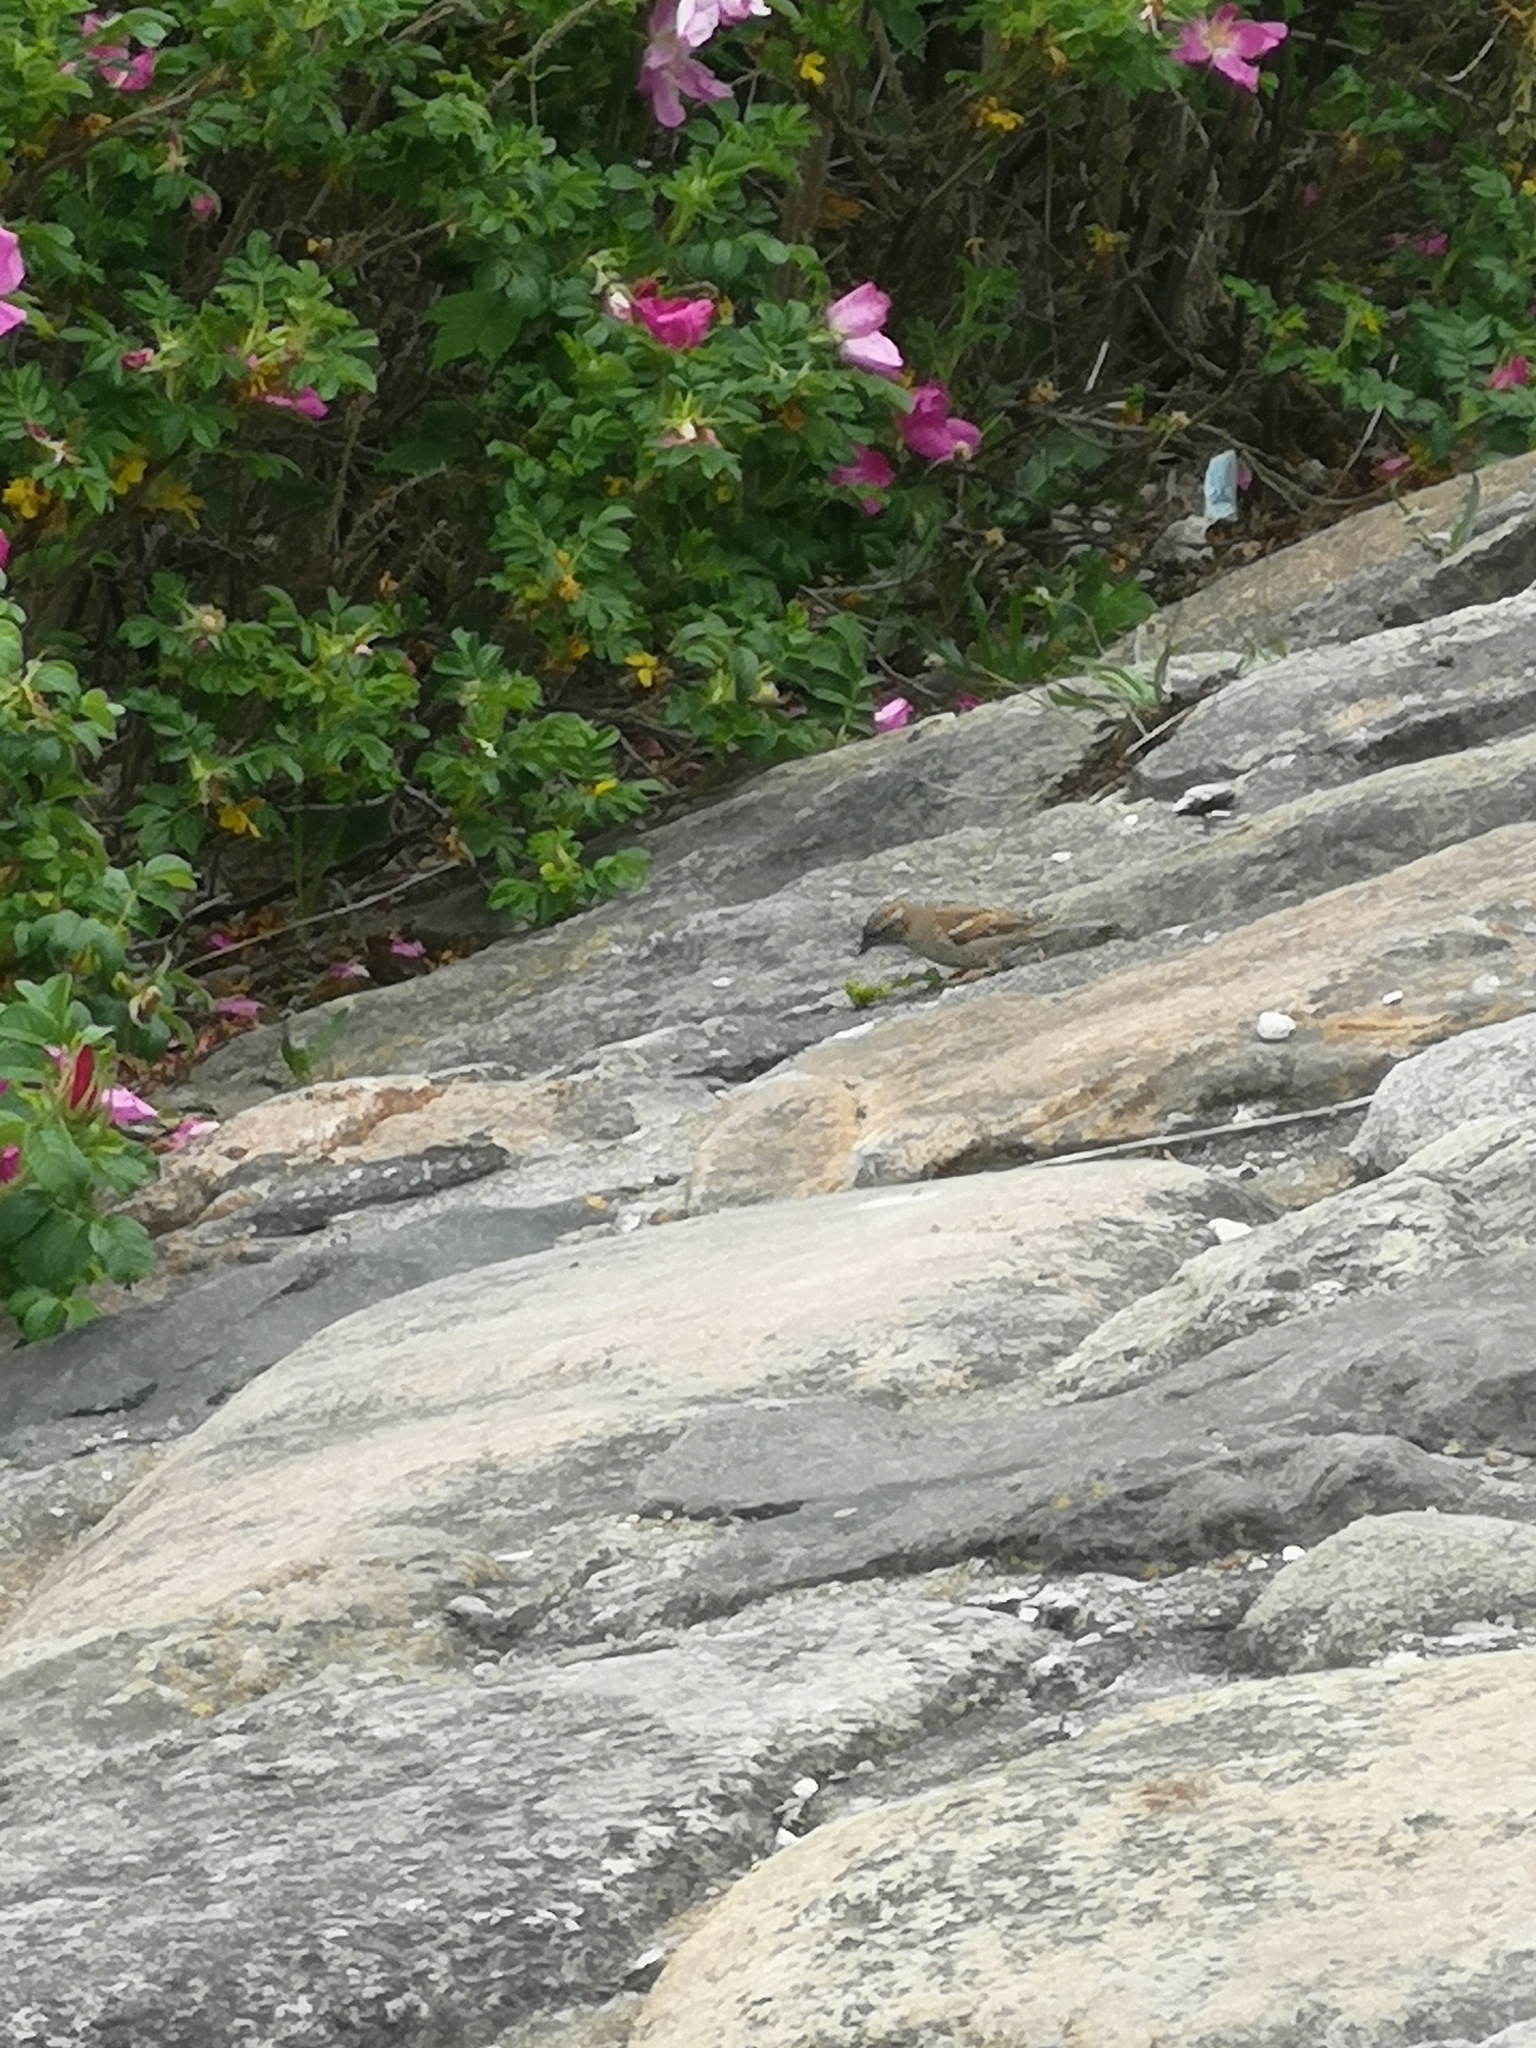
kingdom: Animalia
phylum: Chordata
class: Aves
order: Passeriformes
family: Passeridae
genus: Passer
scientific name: Passer domesticus
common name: House sparrow
